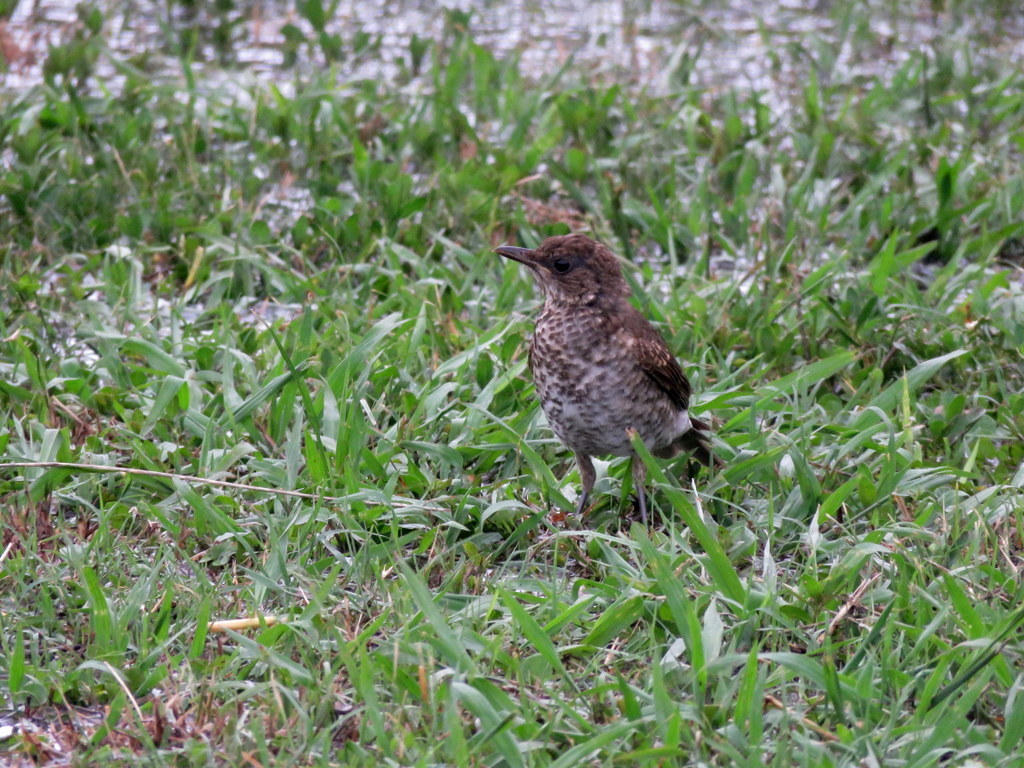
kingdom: Animalia
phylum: Chordata
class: Aves
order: Passeriformes
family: Turdidae
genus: Turdus
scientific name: Turdus amaurochalinus
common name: Creamy-bellied thrush
